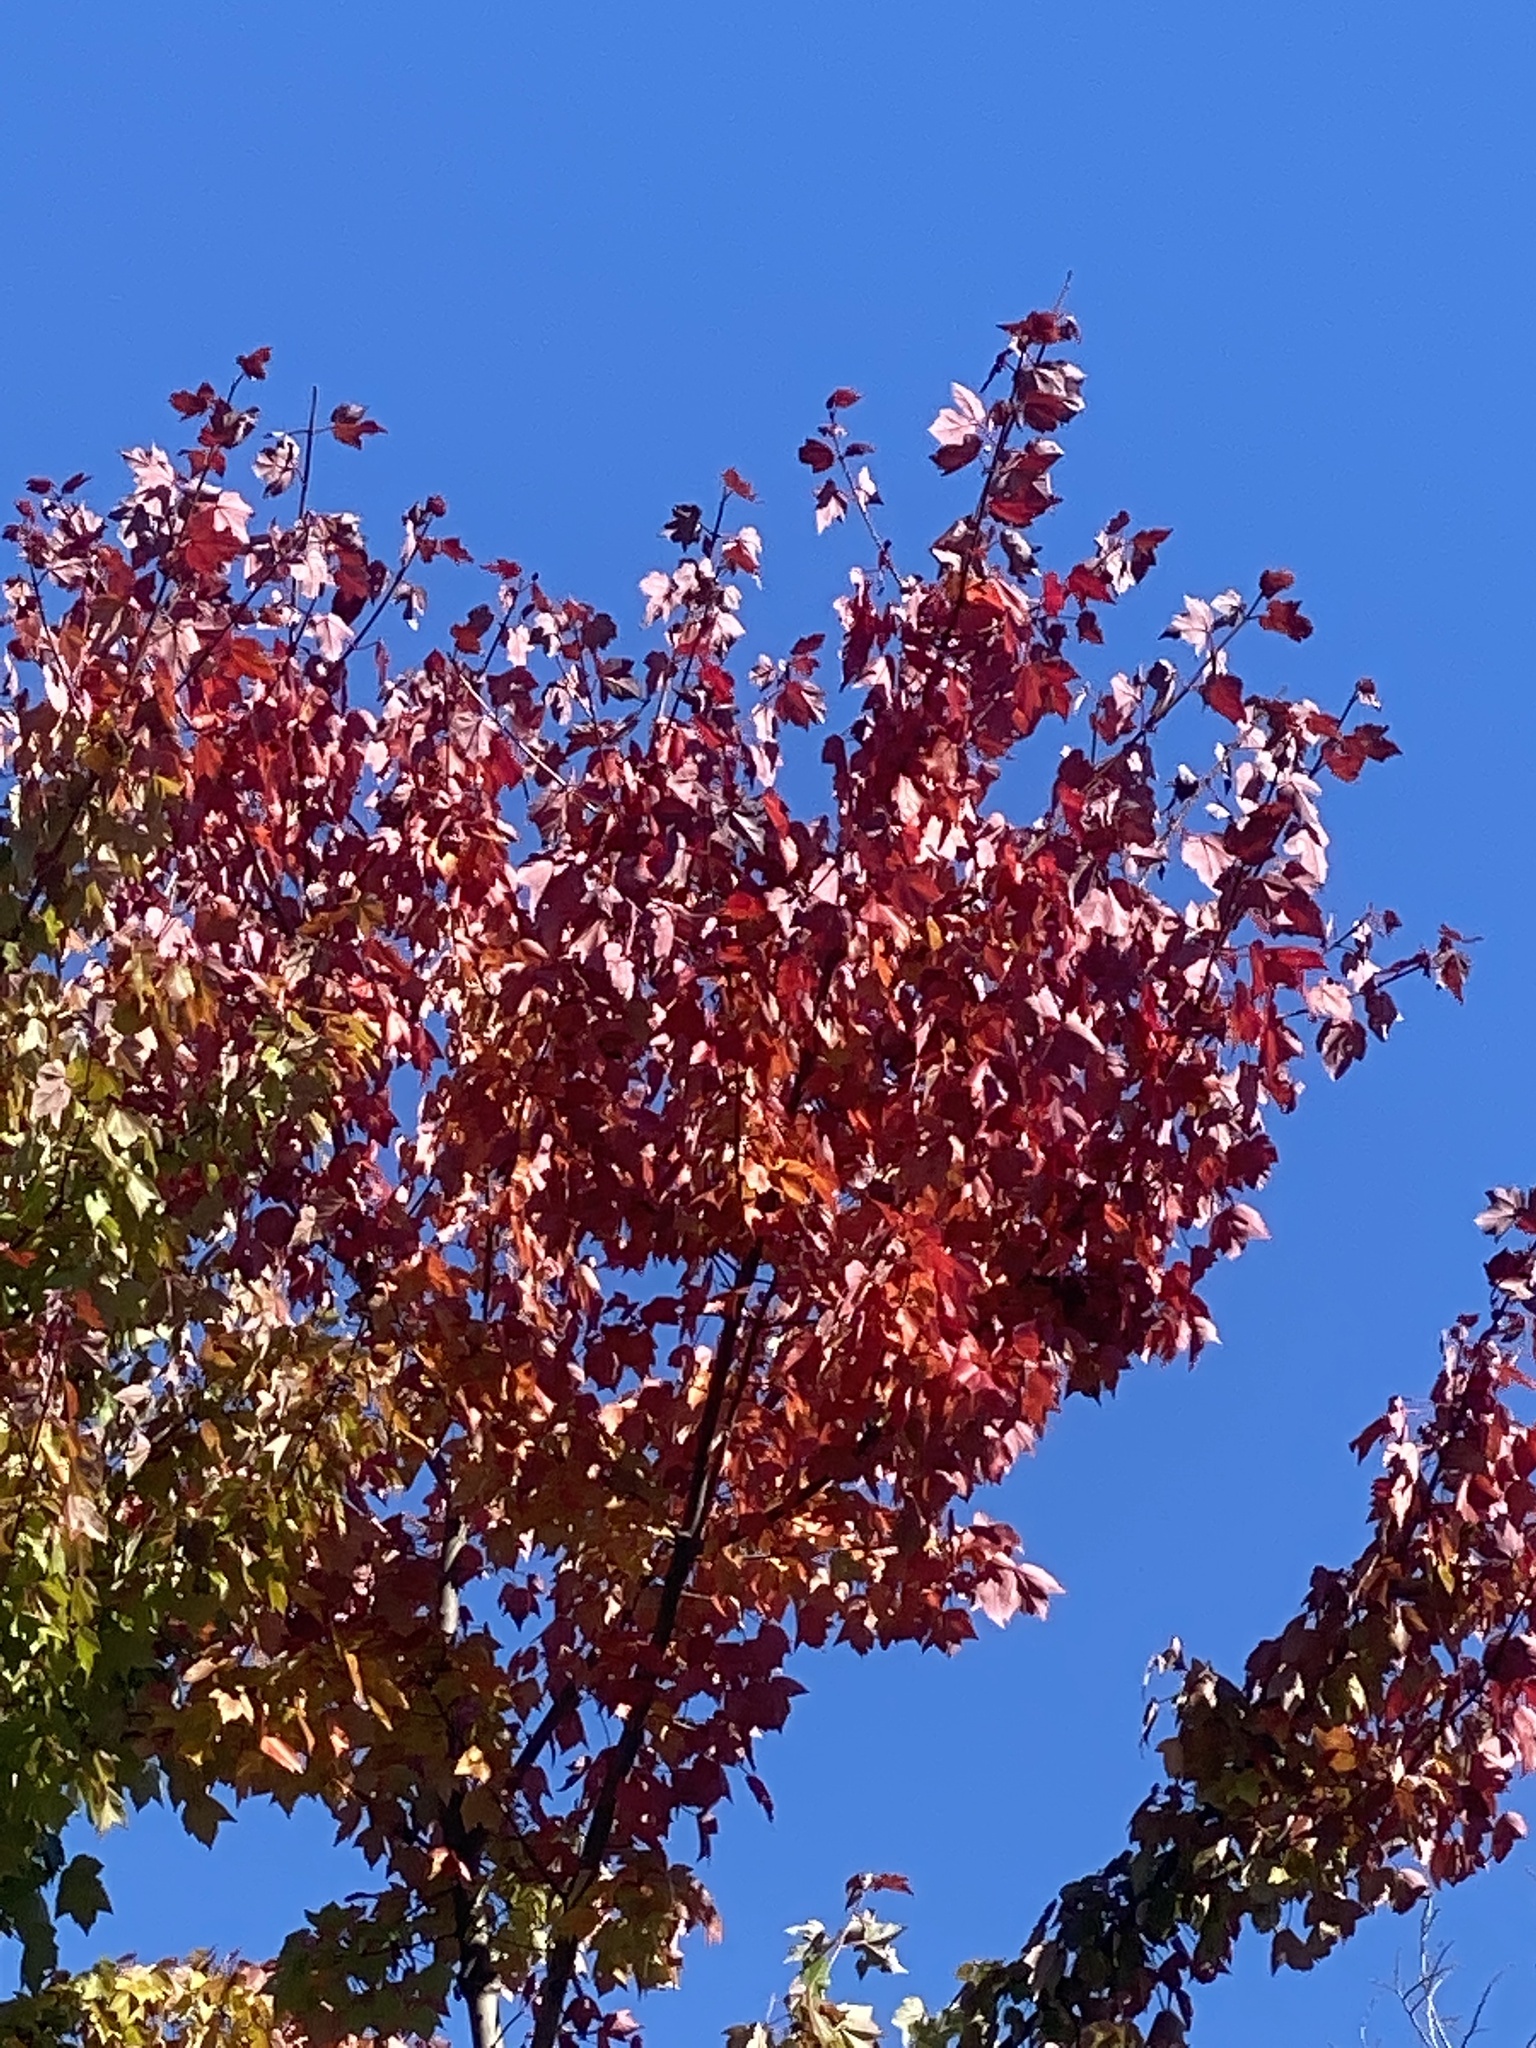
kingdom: Plantae
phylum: Tracheophyta
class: Magnoliopsida
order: Sapindales
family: Sapindaceae
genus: Acer
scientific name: Acer rubrum
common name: Red maple
